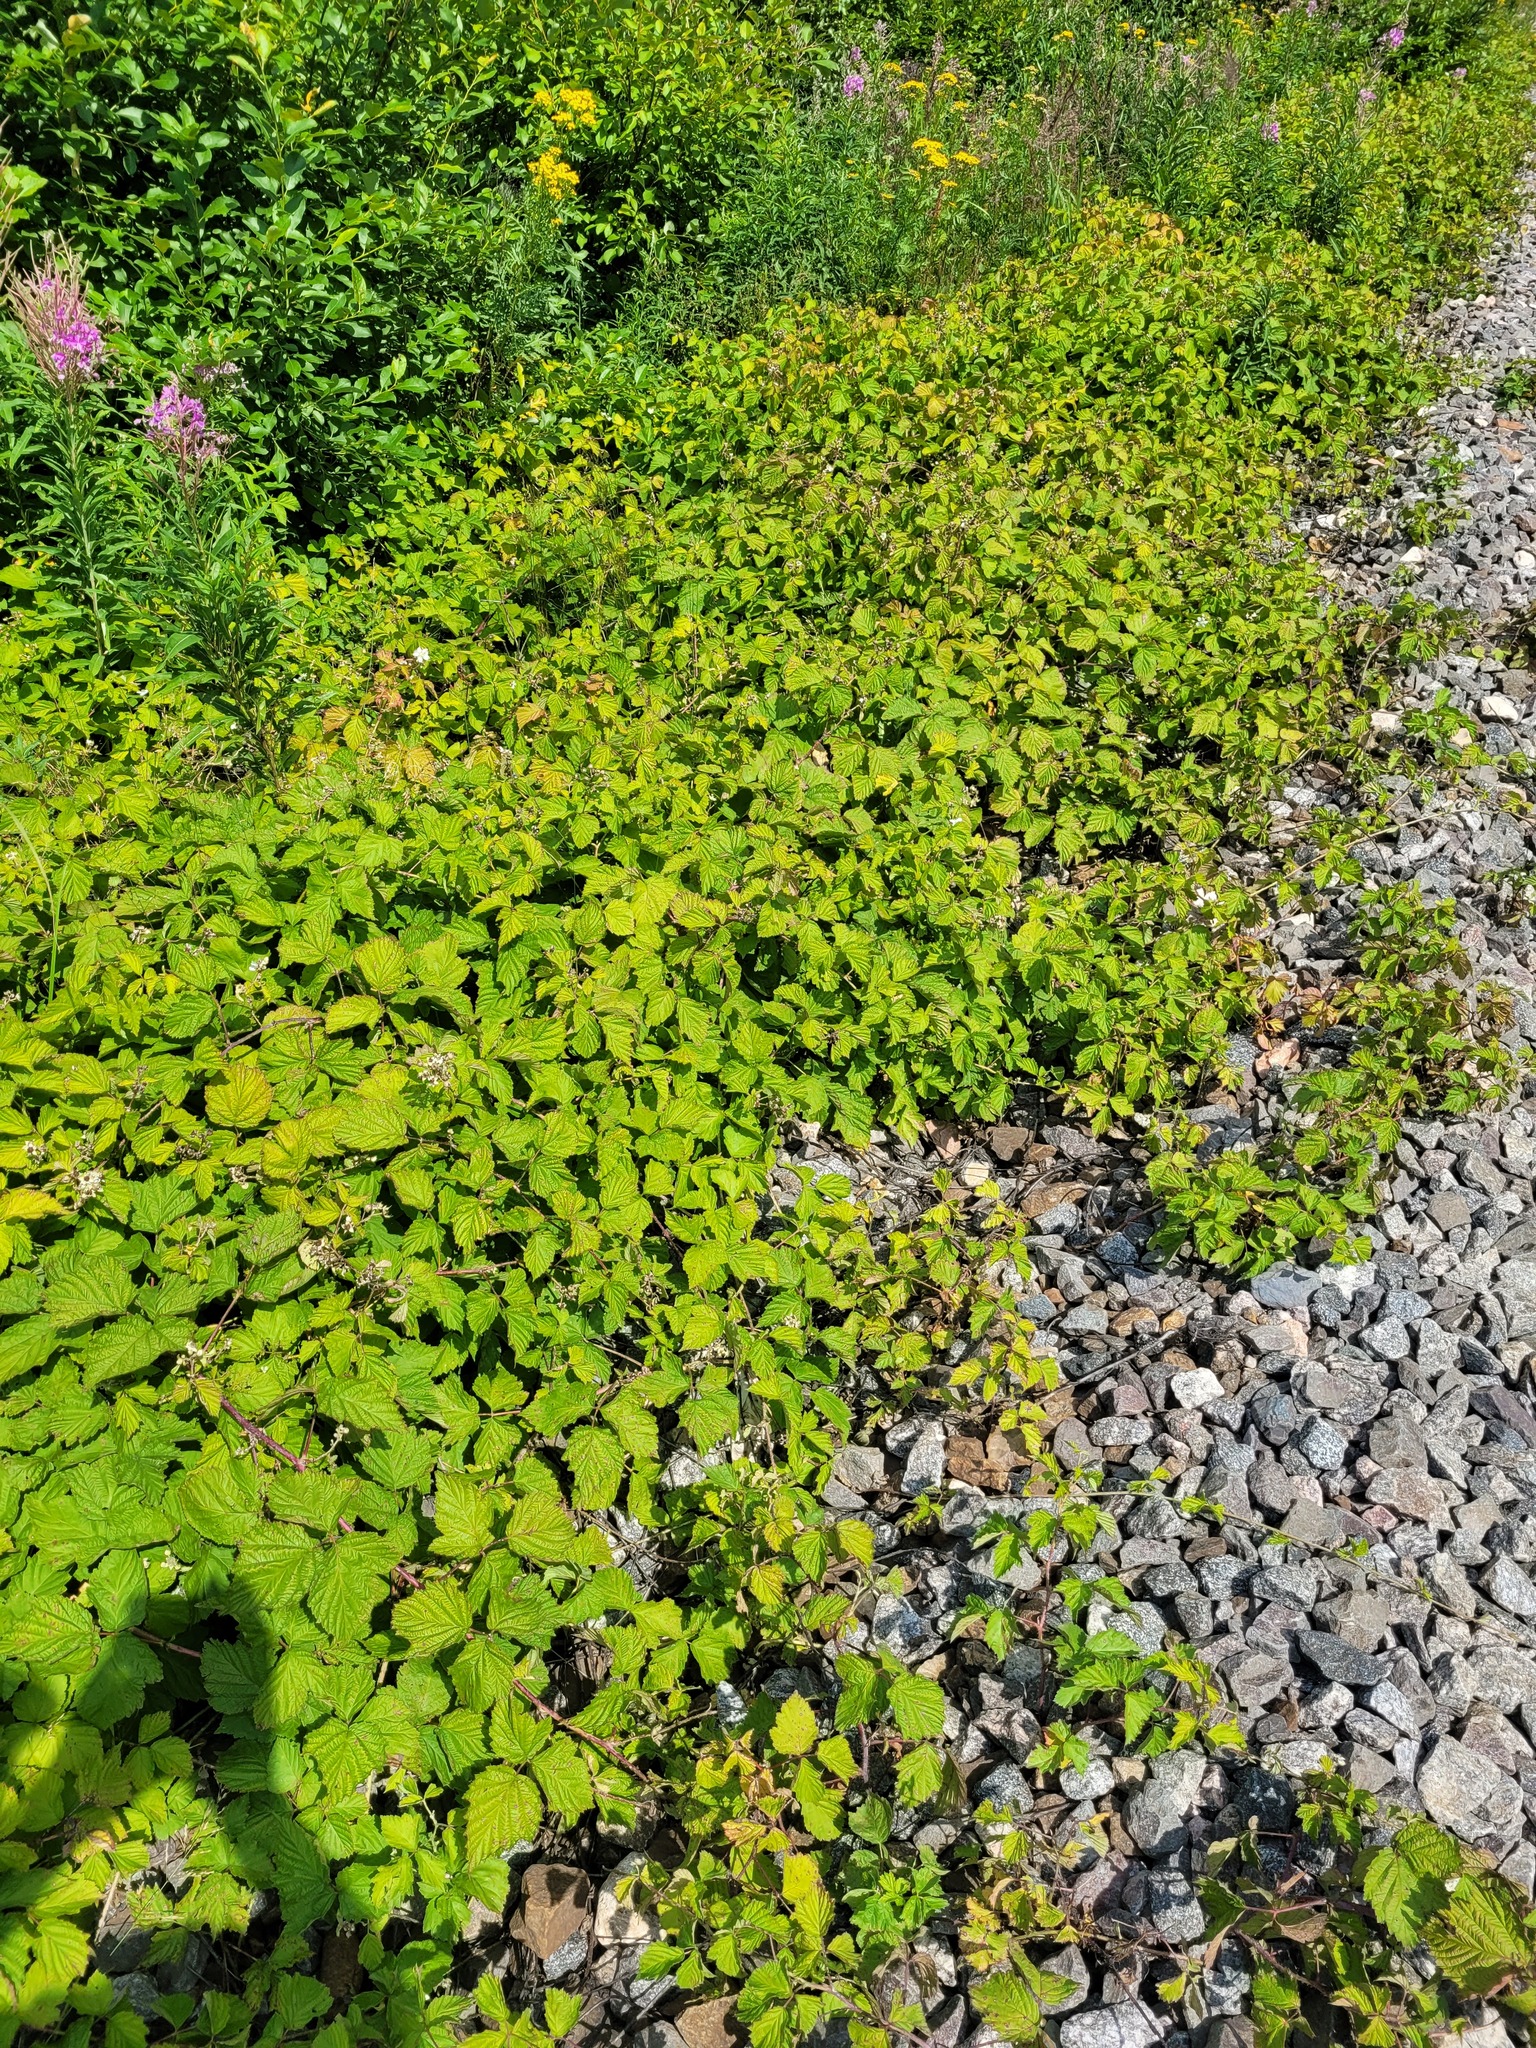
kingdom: Plantae
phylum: Tracheophyta
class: Magnoliopsida
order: Rosales
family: Rosaceae
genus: Rubus
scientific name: Rubus caesius
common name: Dewberry
